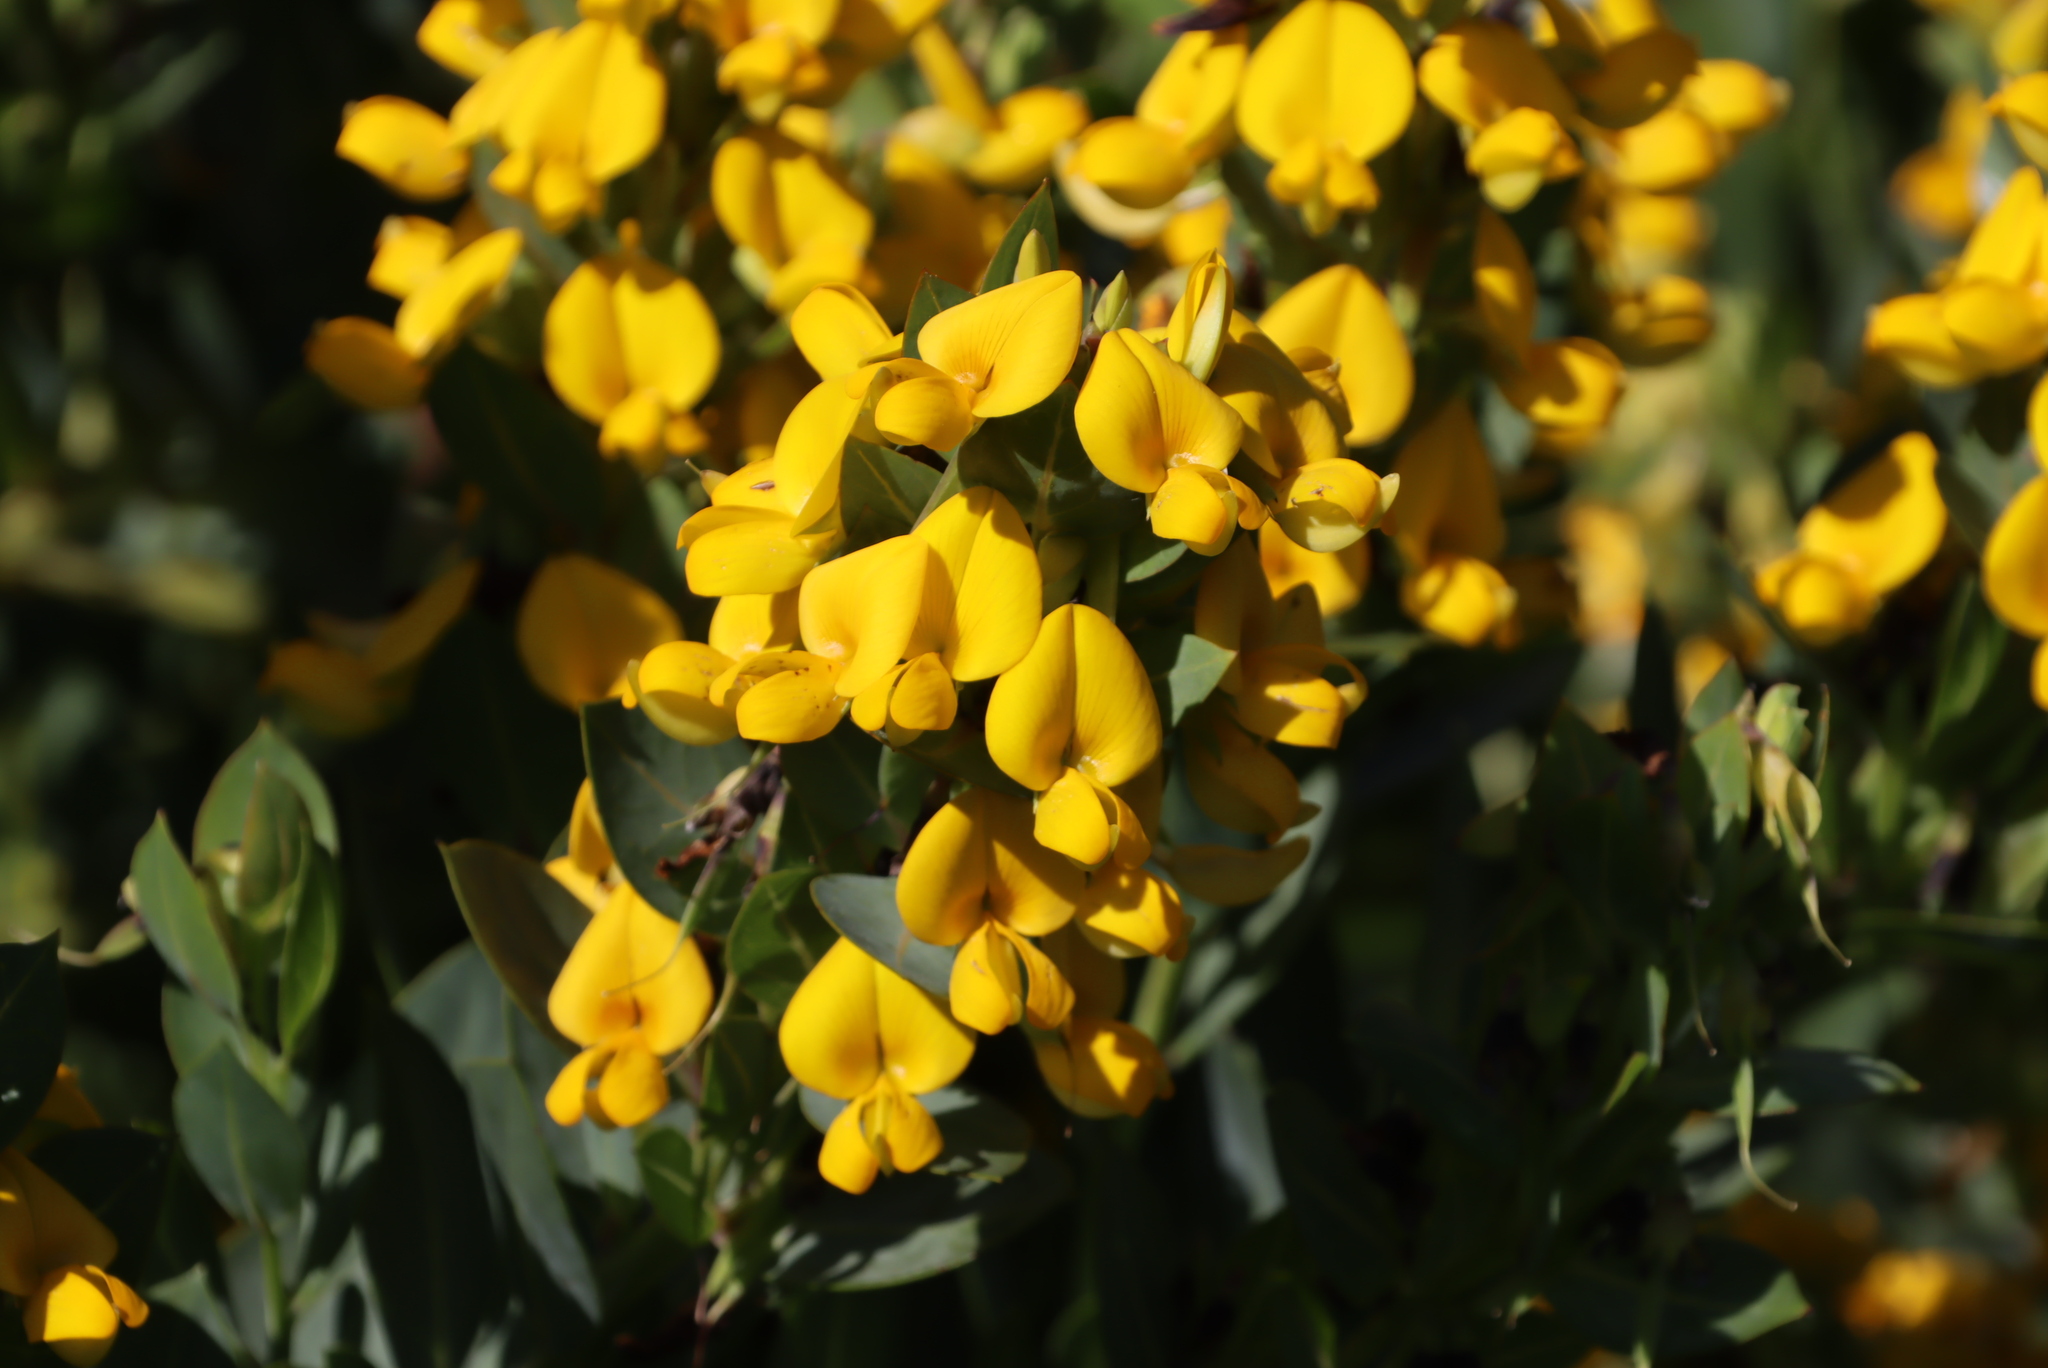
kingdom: Plantae
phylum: Tracheophyta
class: Magnoliopsida
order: Fabales
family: Fabaceae
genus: Rafnia
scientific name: Rafnia triflora
